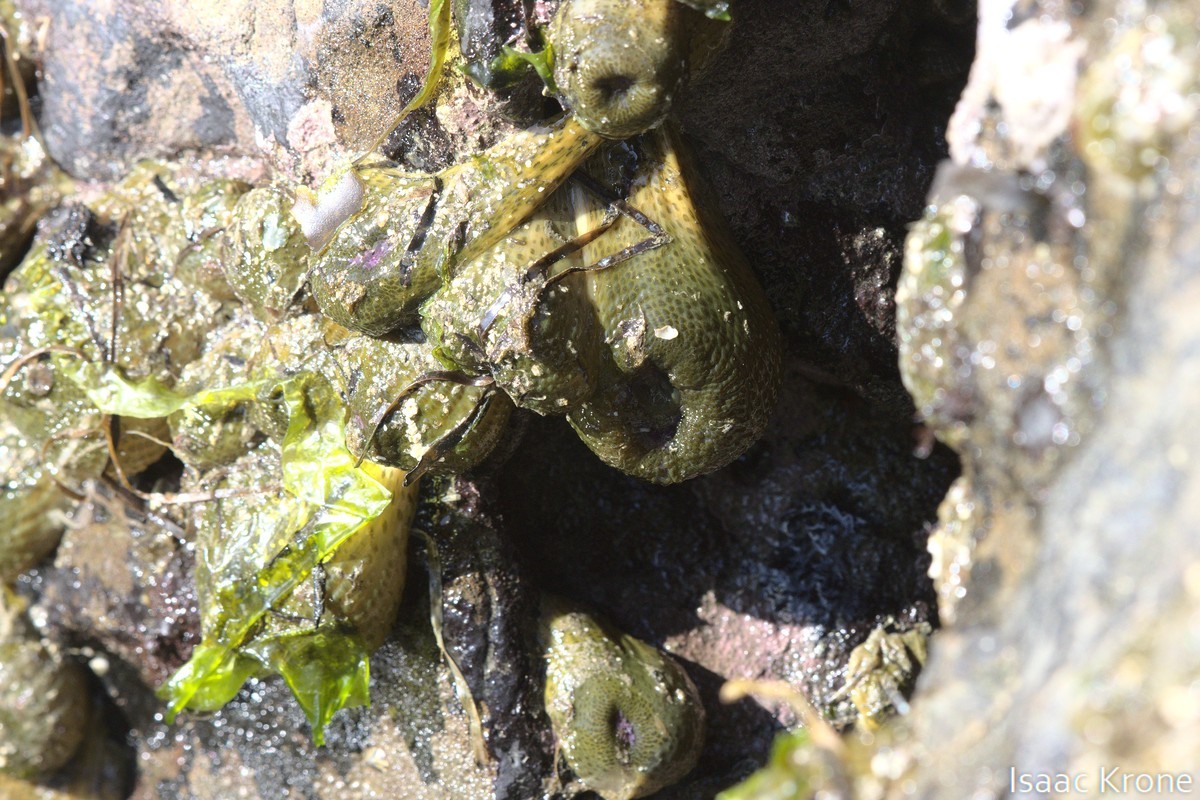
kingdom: Animalia
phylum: Cnidaria
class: Anthozoa
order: Actiniaria
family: Actiniidae
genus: Anthopleura
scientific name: Anthopleura elegantissima
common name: Clonal anemone
